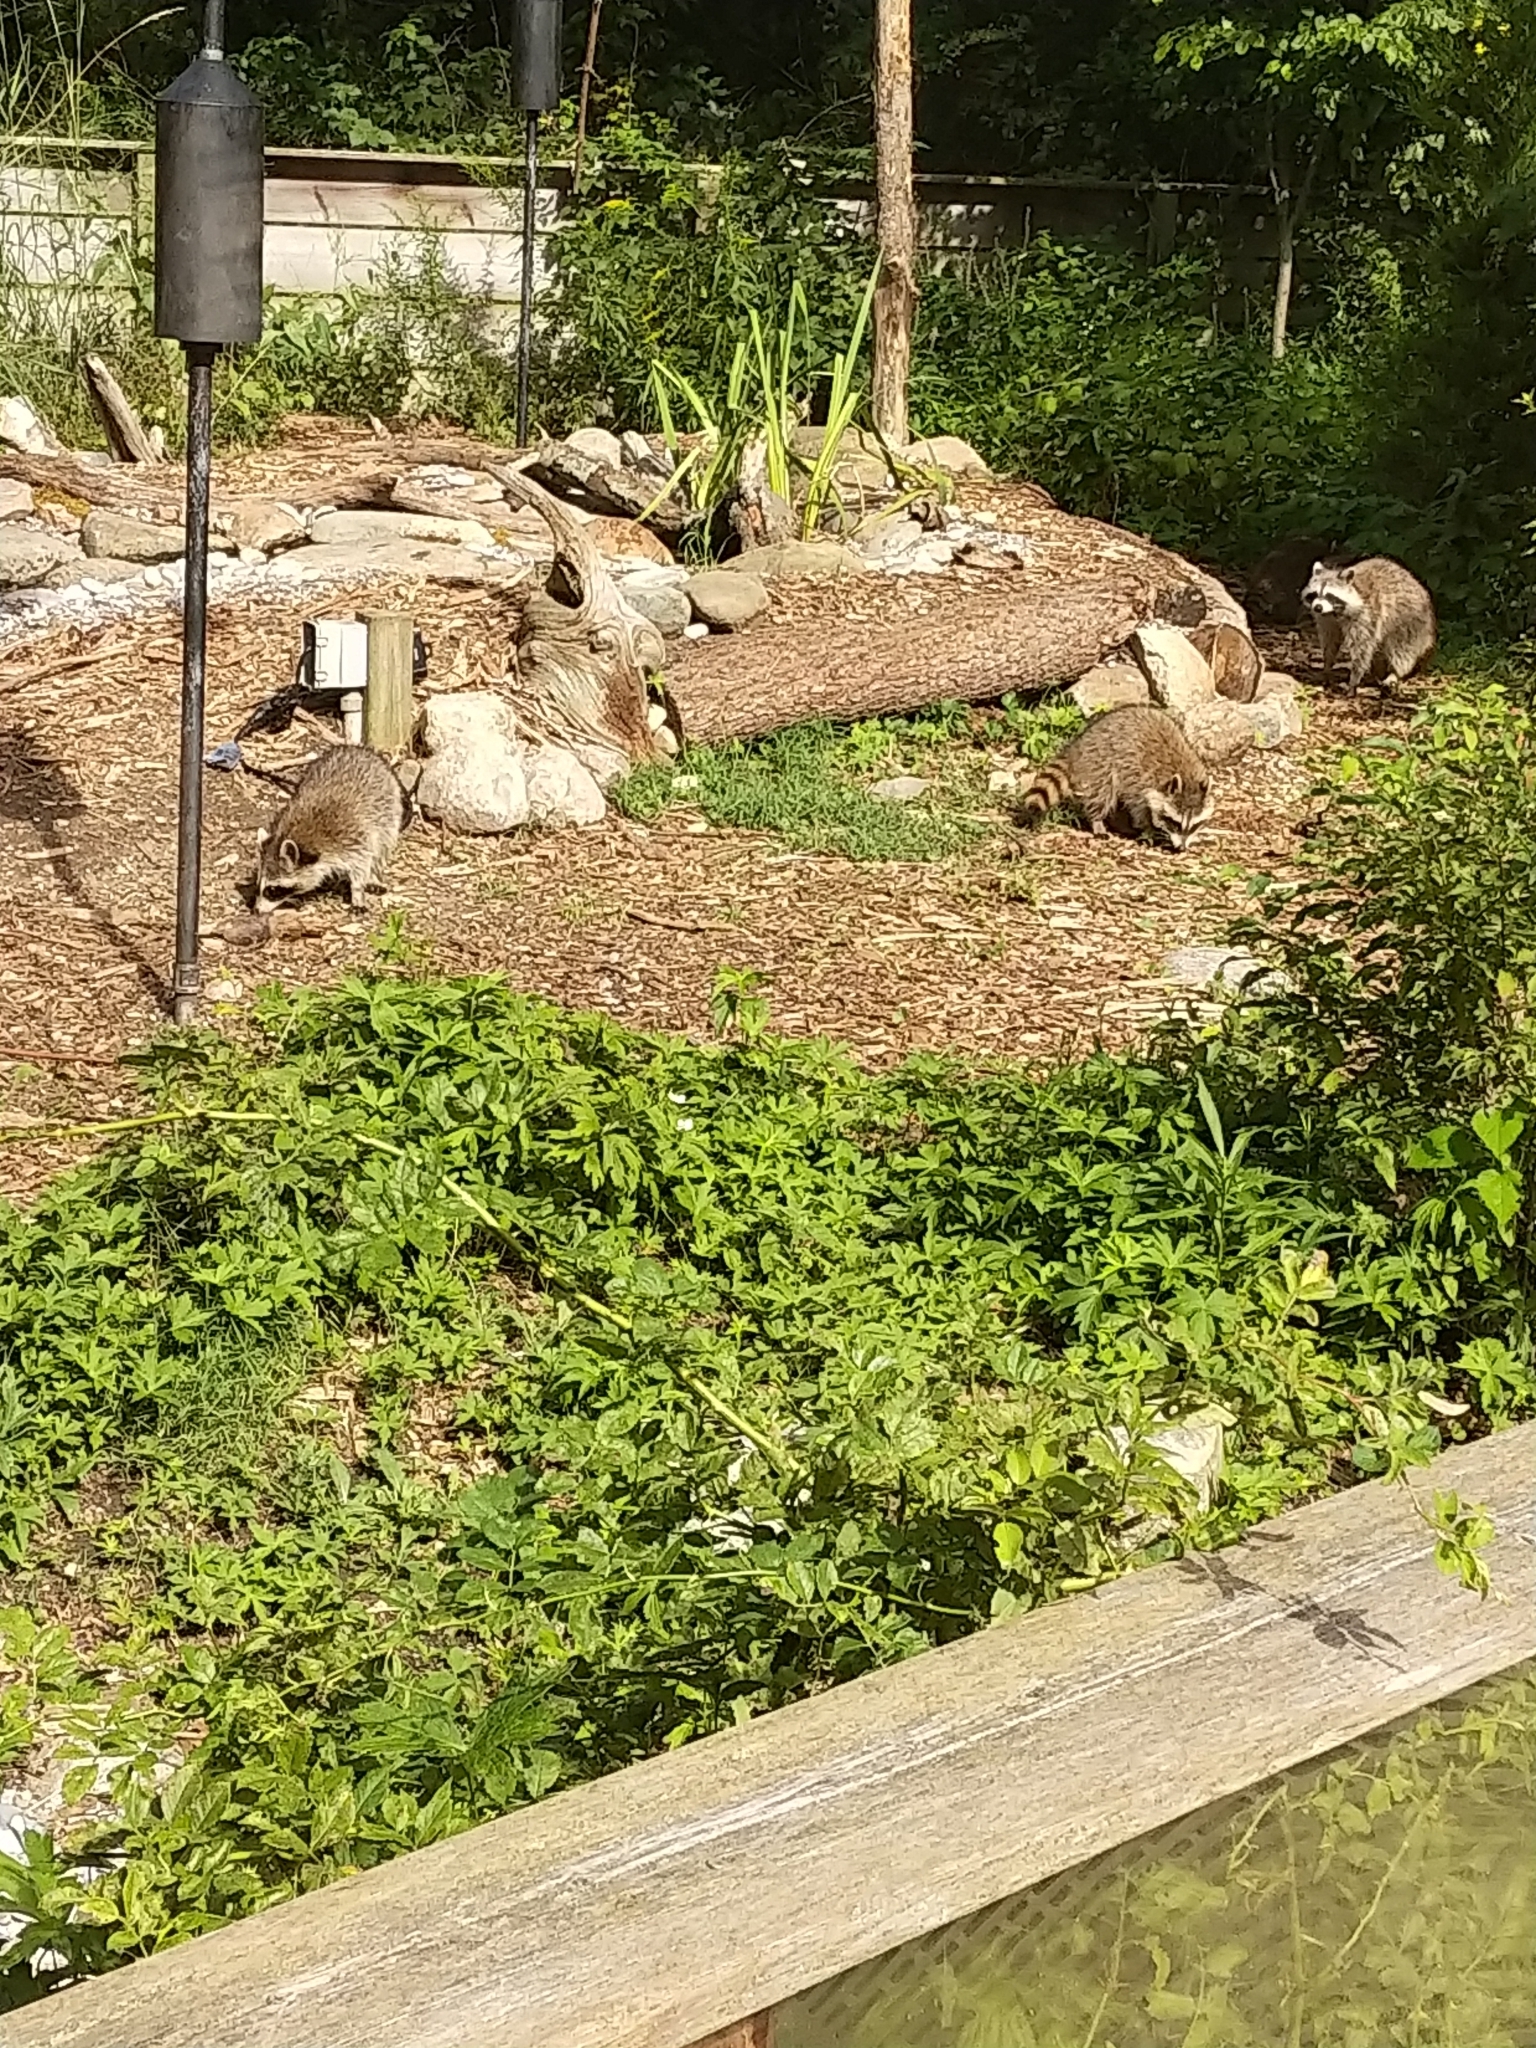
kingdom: Animalia
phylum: Chordata
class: Mammalia
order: Carnivora
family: Procyonidae
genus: Procyon
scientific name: Procyon lotor
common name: Raccoon
